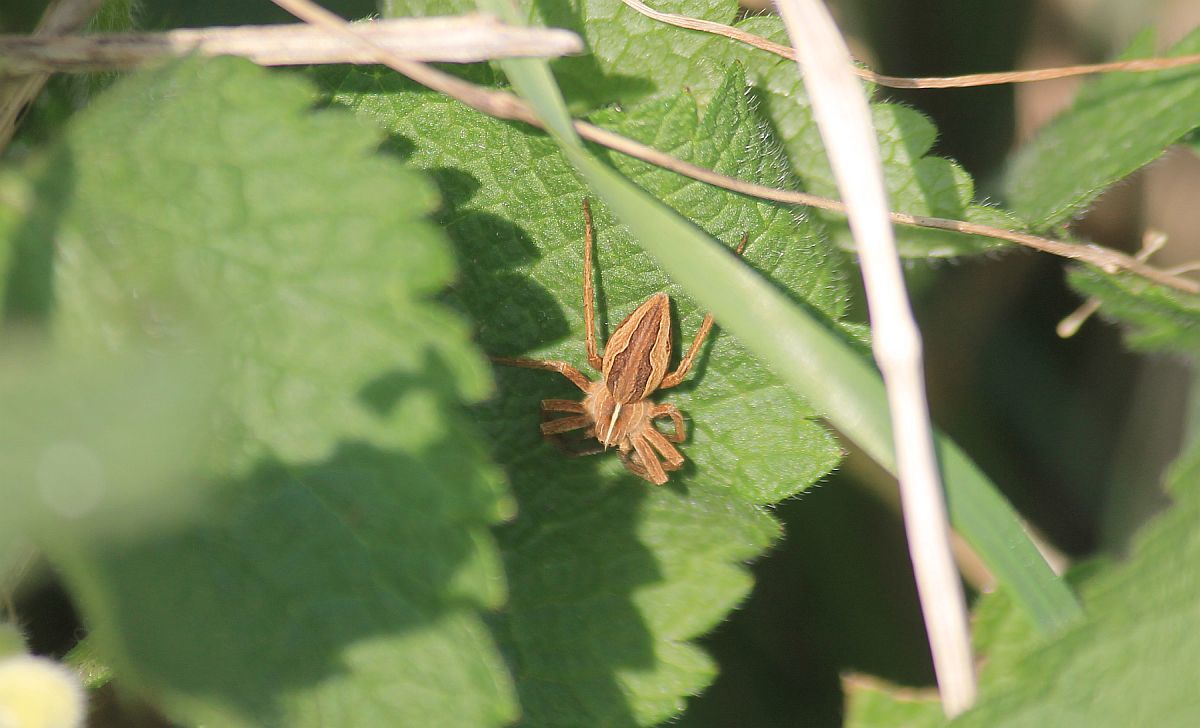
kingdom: Animalia
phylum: Arthropoda
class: Arachnida
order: Araneae
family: Pisauridae
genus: Pisaura
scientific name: Pisaura mirabilis
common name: Tent spider
